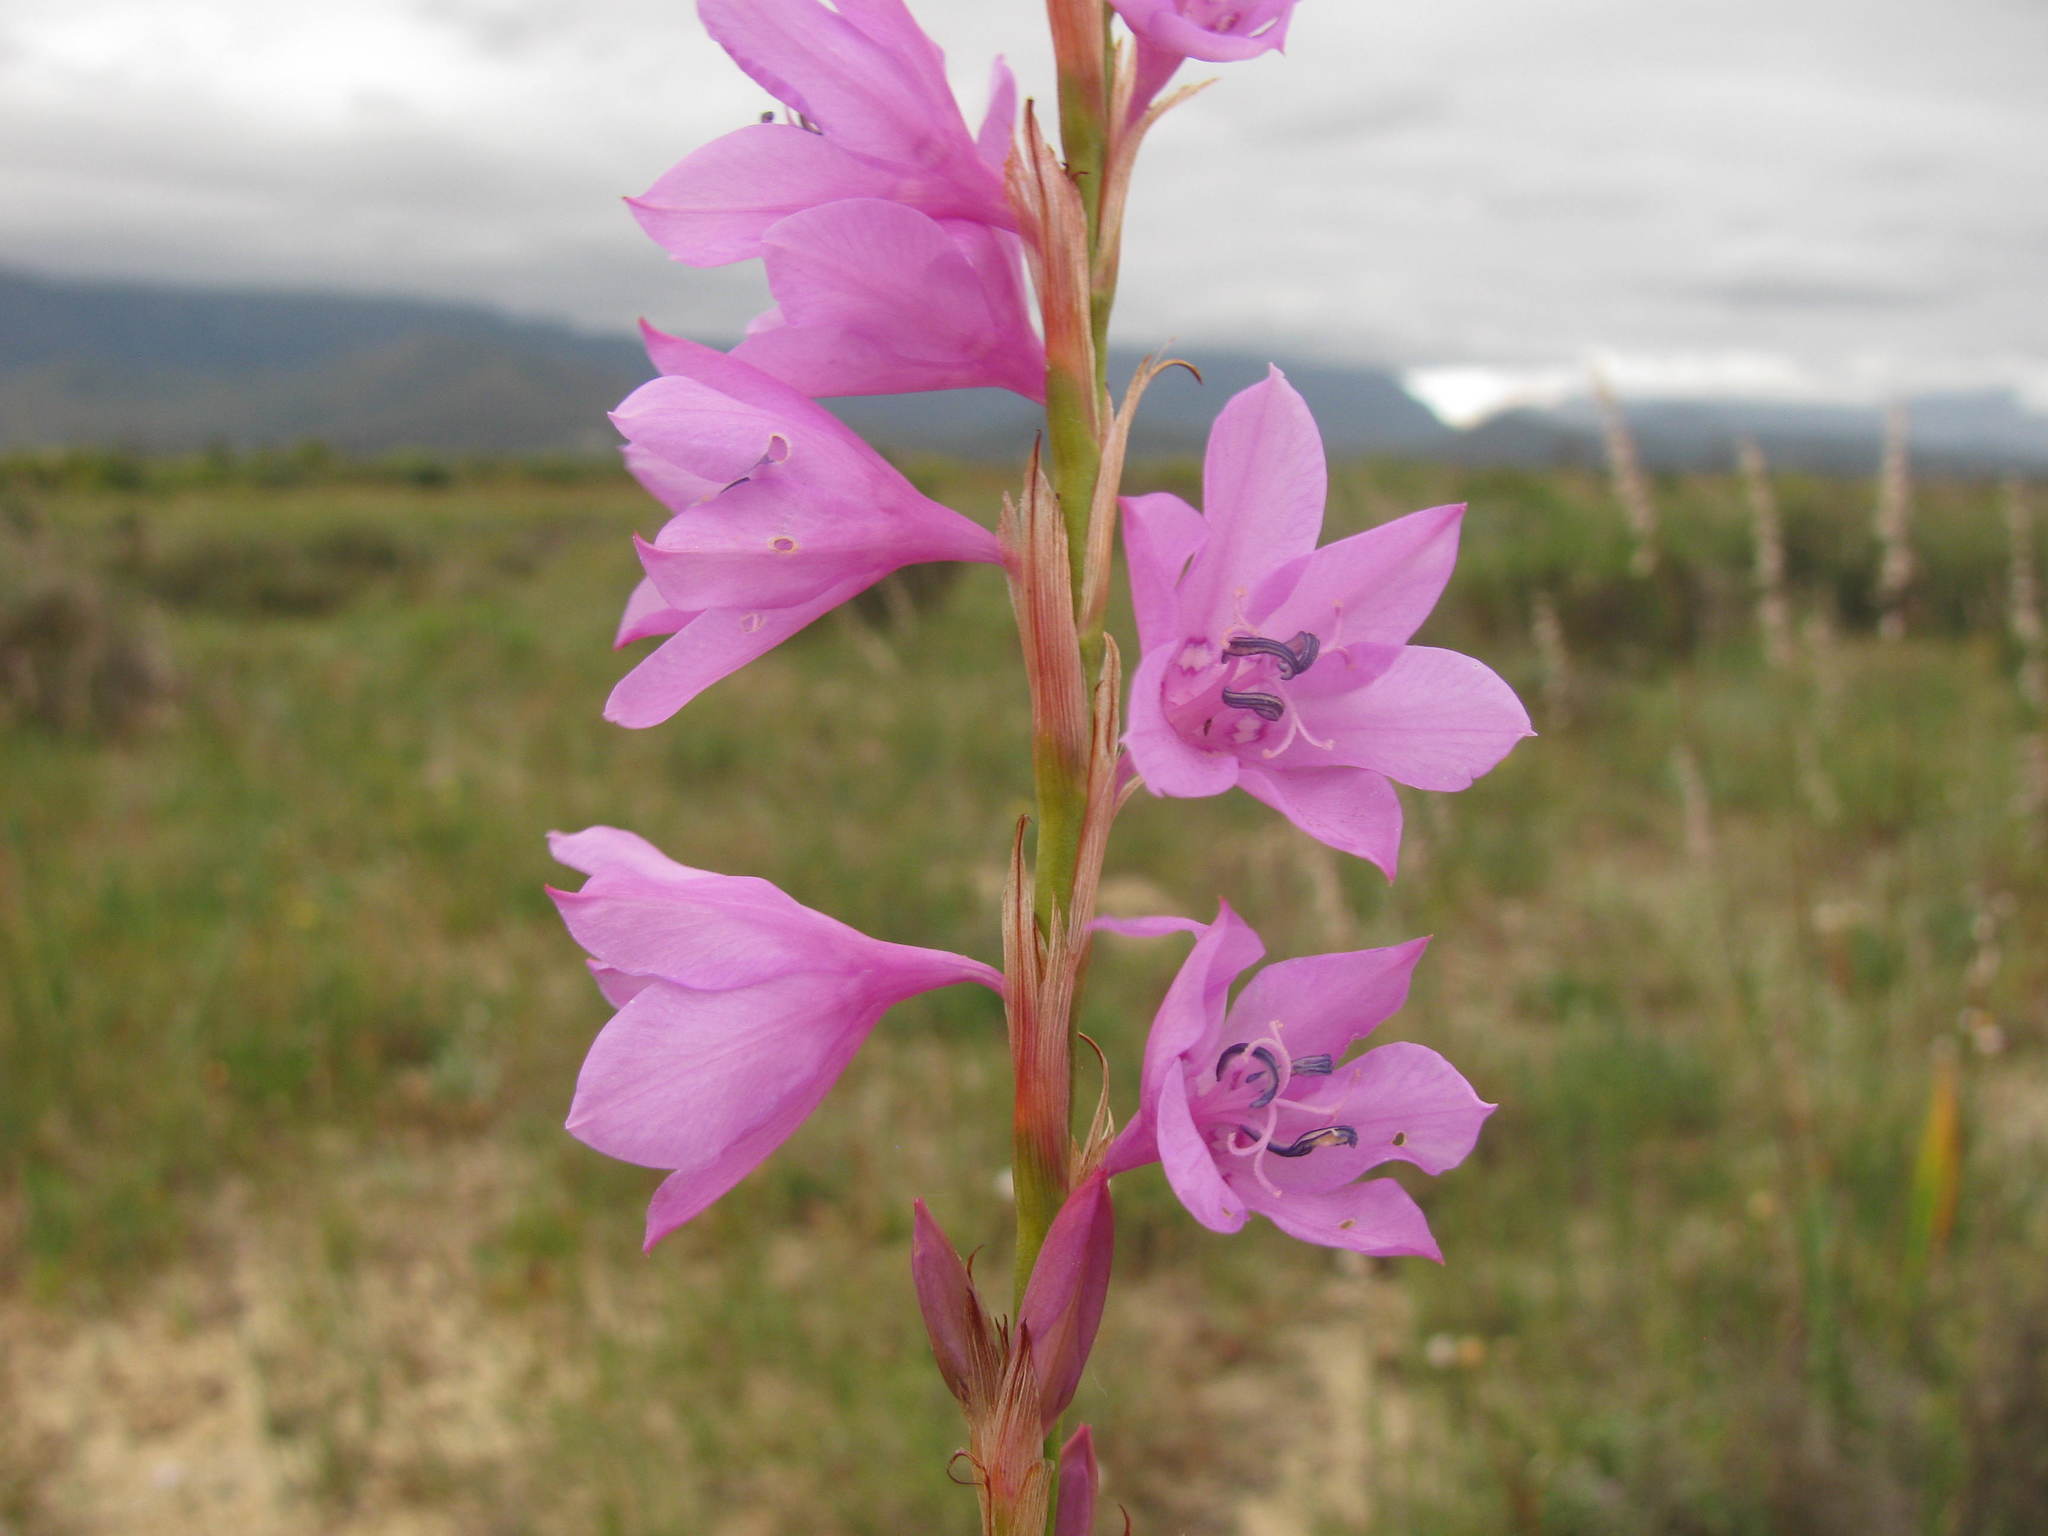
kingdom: Plantae
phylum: Tracheophyta
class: Liliopsida
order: Asparagales
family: Iridaceae
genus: Watsonia
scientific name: Watsonia marginata
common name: Fragrant bugle-lily
